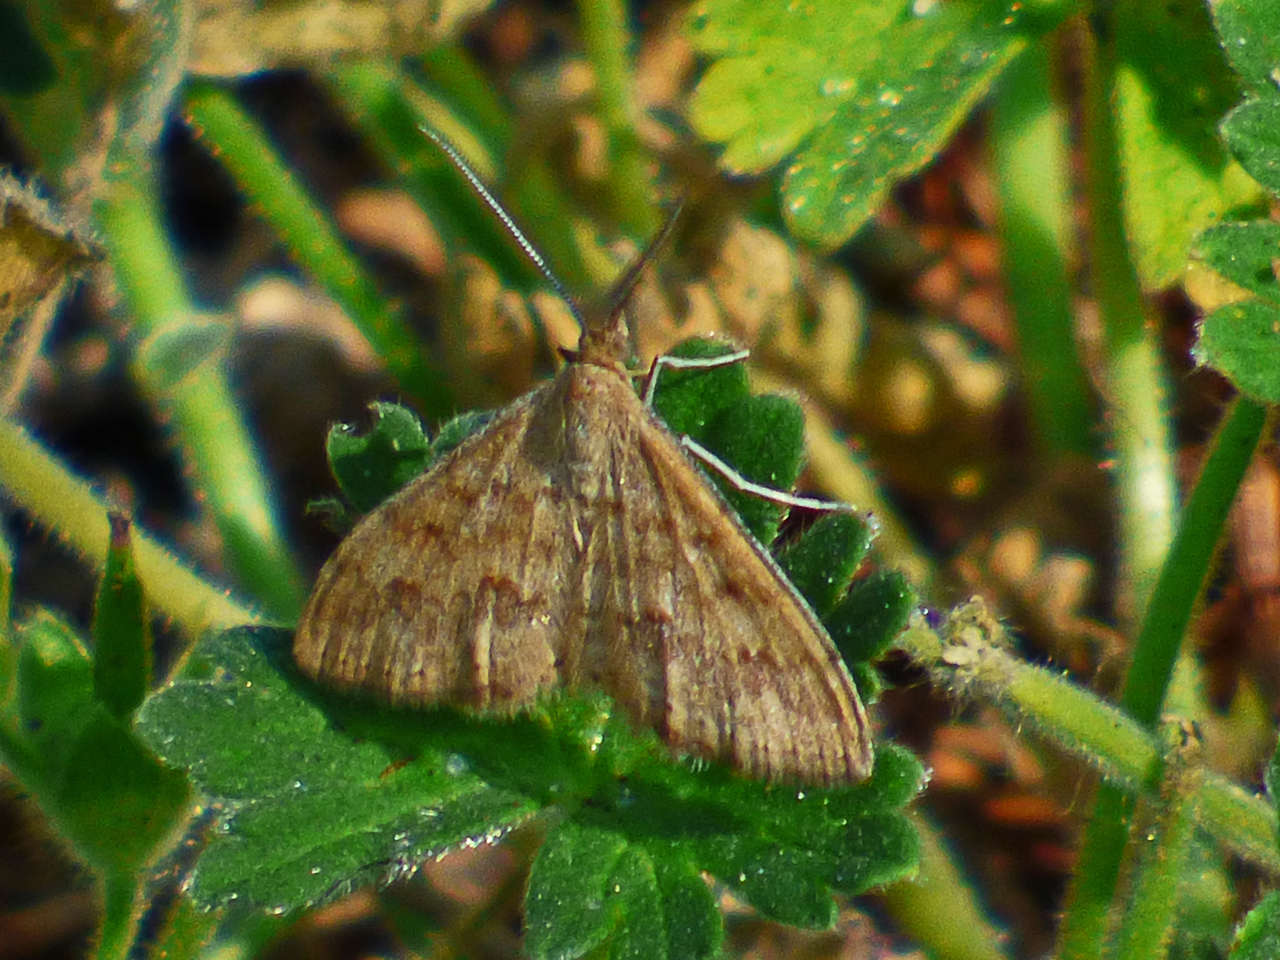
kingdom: Animalia
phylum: Arthropoda
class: Insecta
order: Lepidoptera
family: Geometridae
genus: Scopula
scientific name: Scopula rubraria
